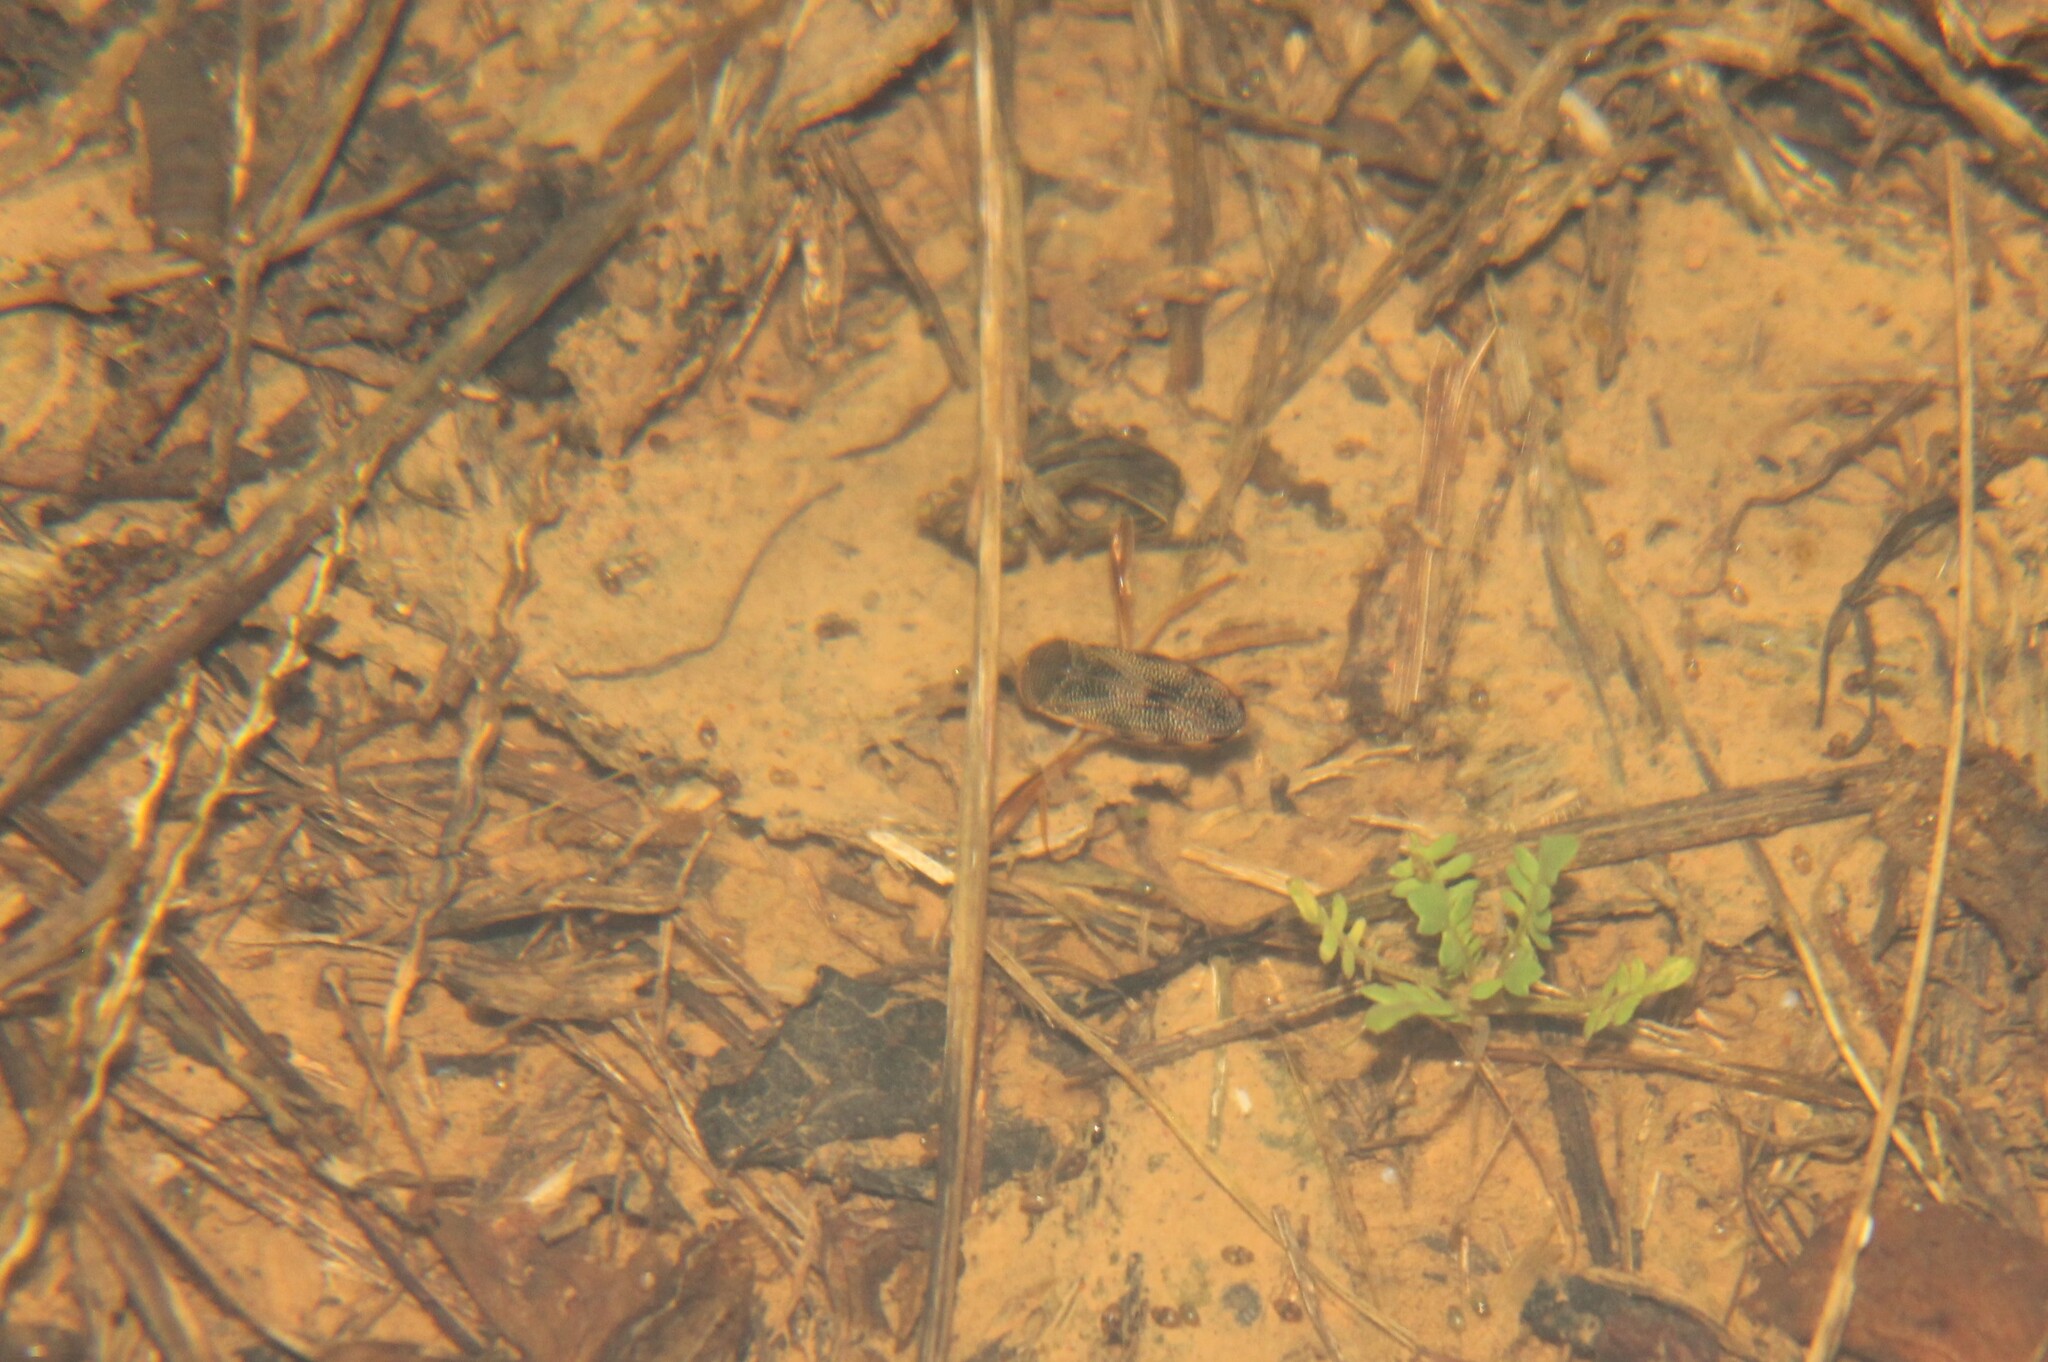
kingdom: Animalia
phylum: Arthropoda
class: Insecta
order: Hemiptera
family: Corixidae
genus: Hesperocorixa
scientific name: Hesperocorixa
